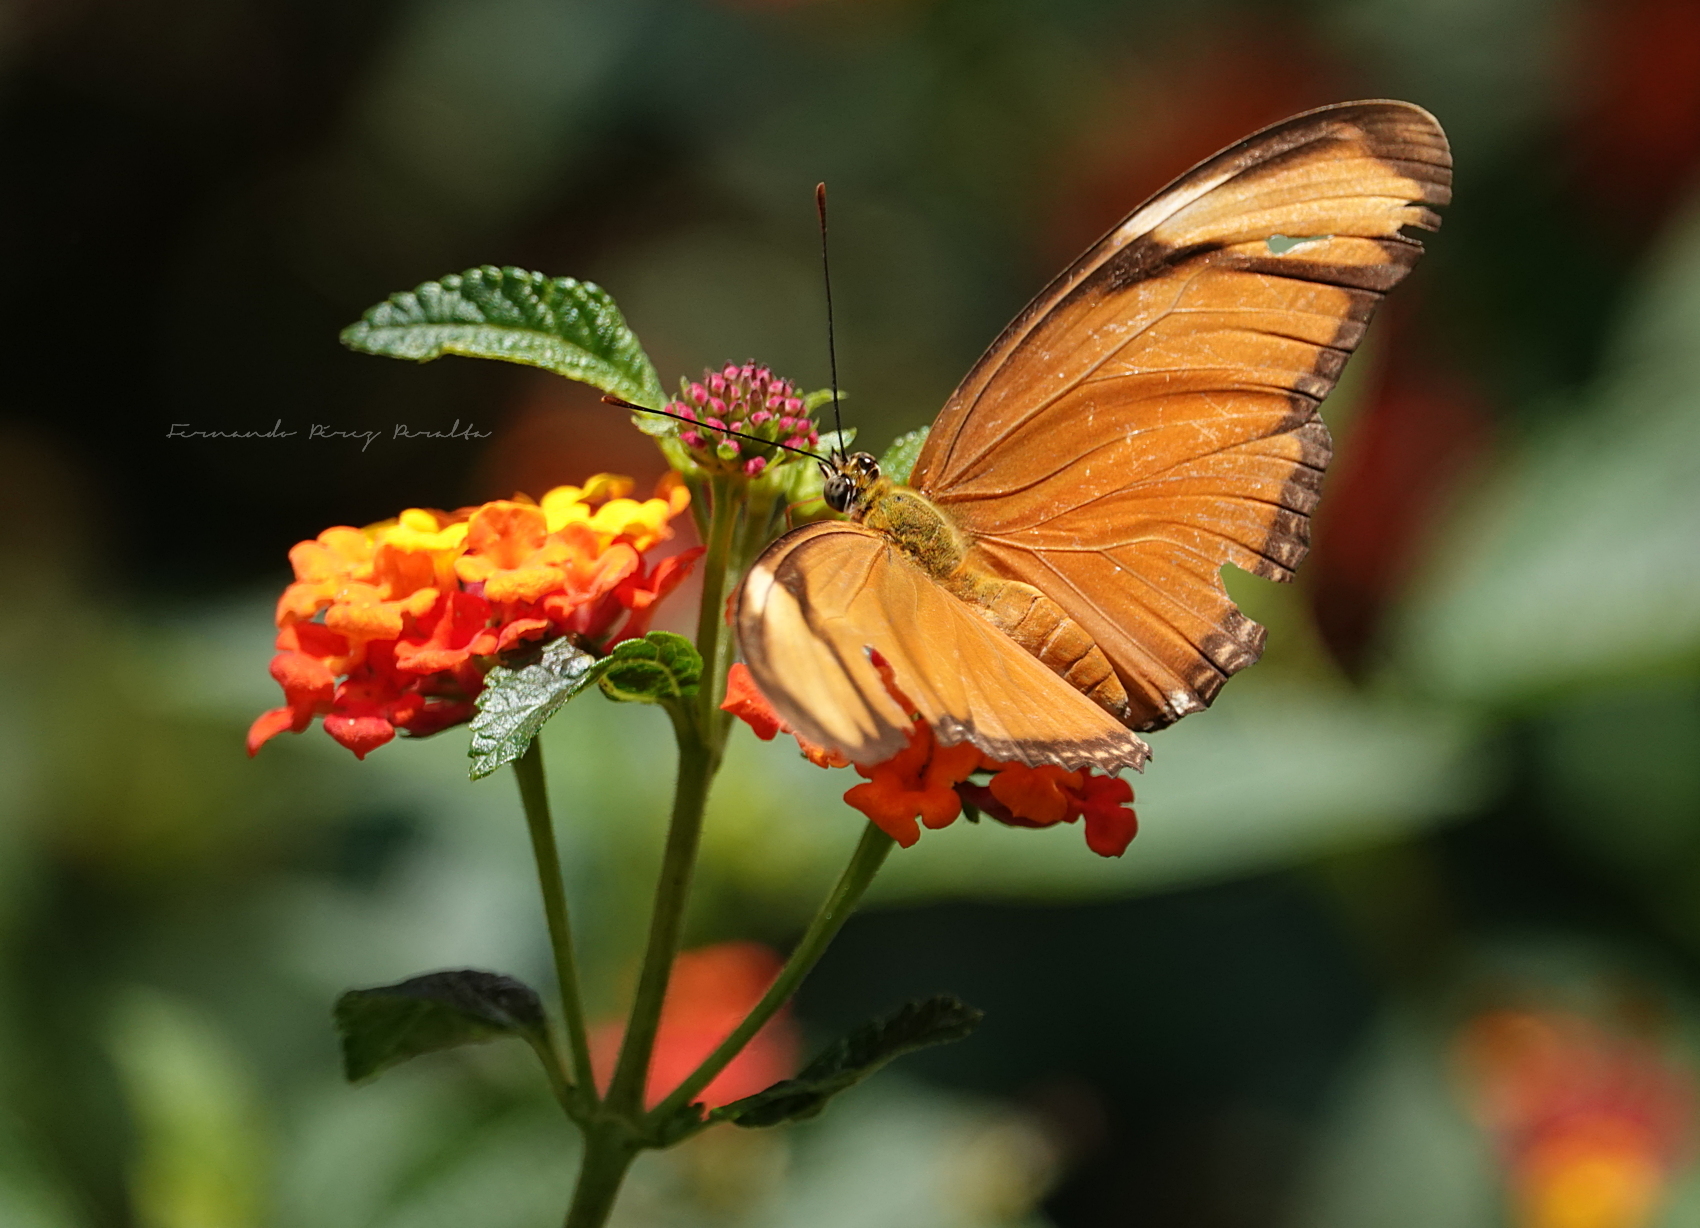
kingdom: Animalia
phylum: Arthropoda
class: Insecta
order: Lepidoptera
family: Nymphalidae
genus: Dryas
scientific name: Dryas iulia
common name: Flambeau
